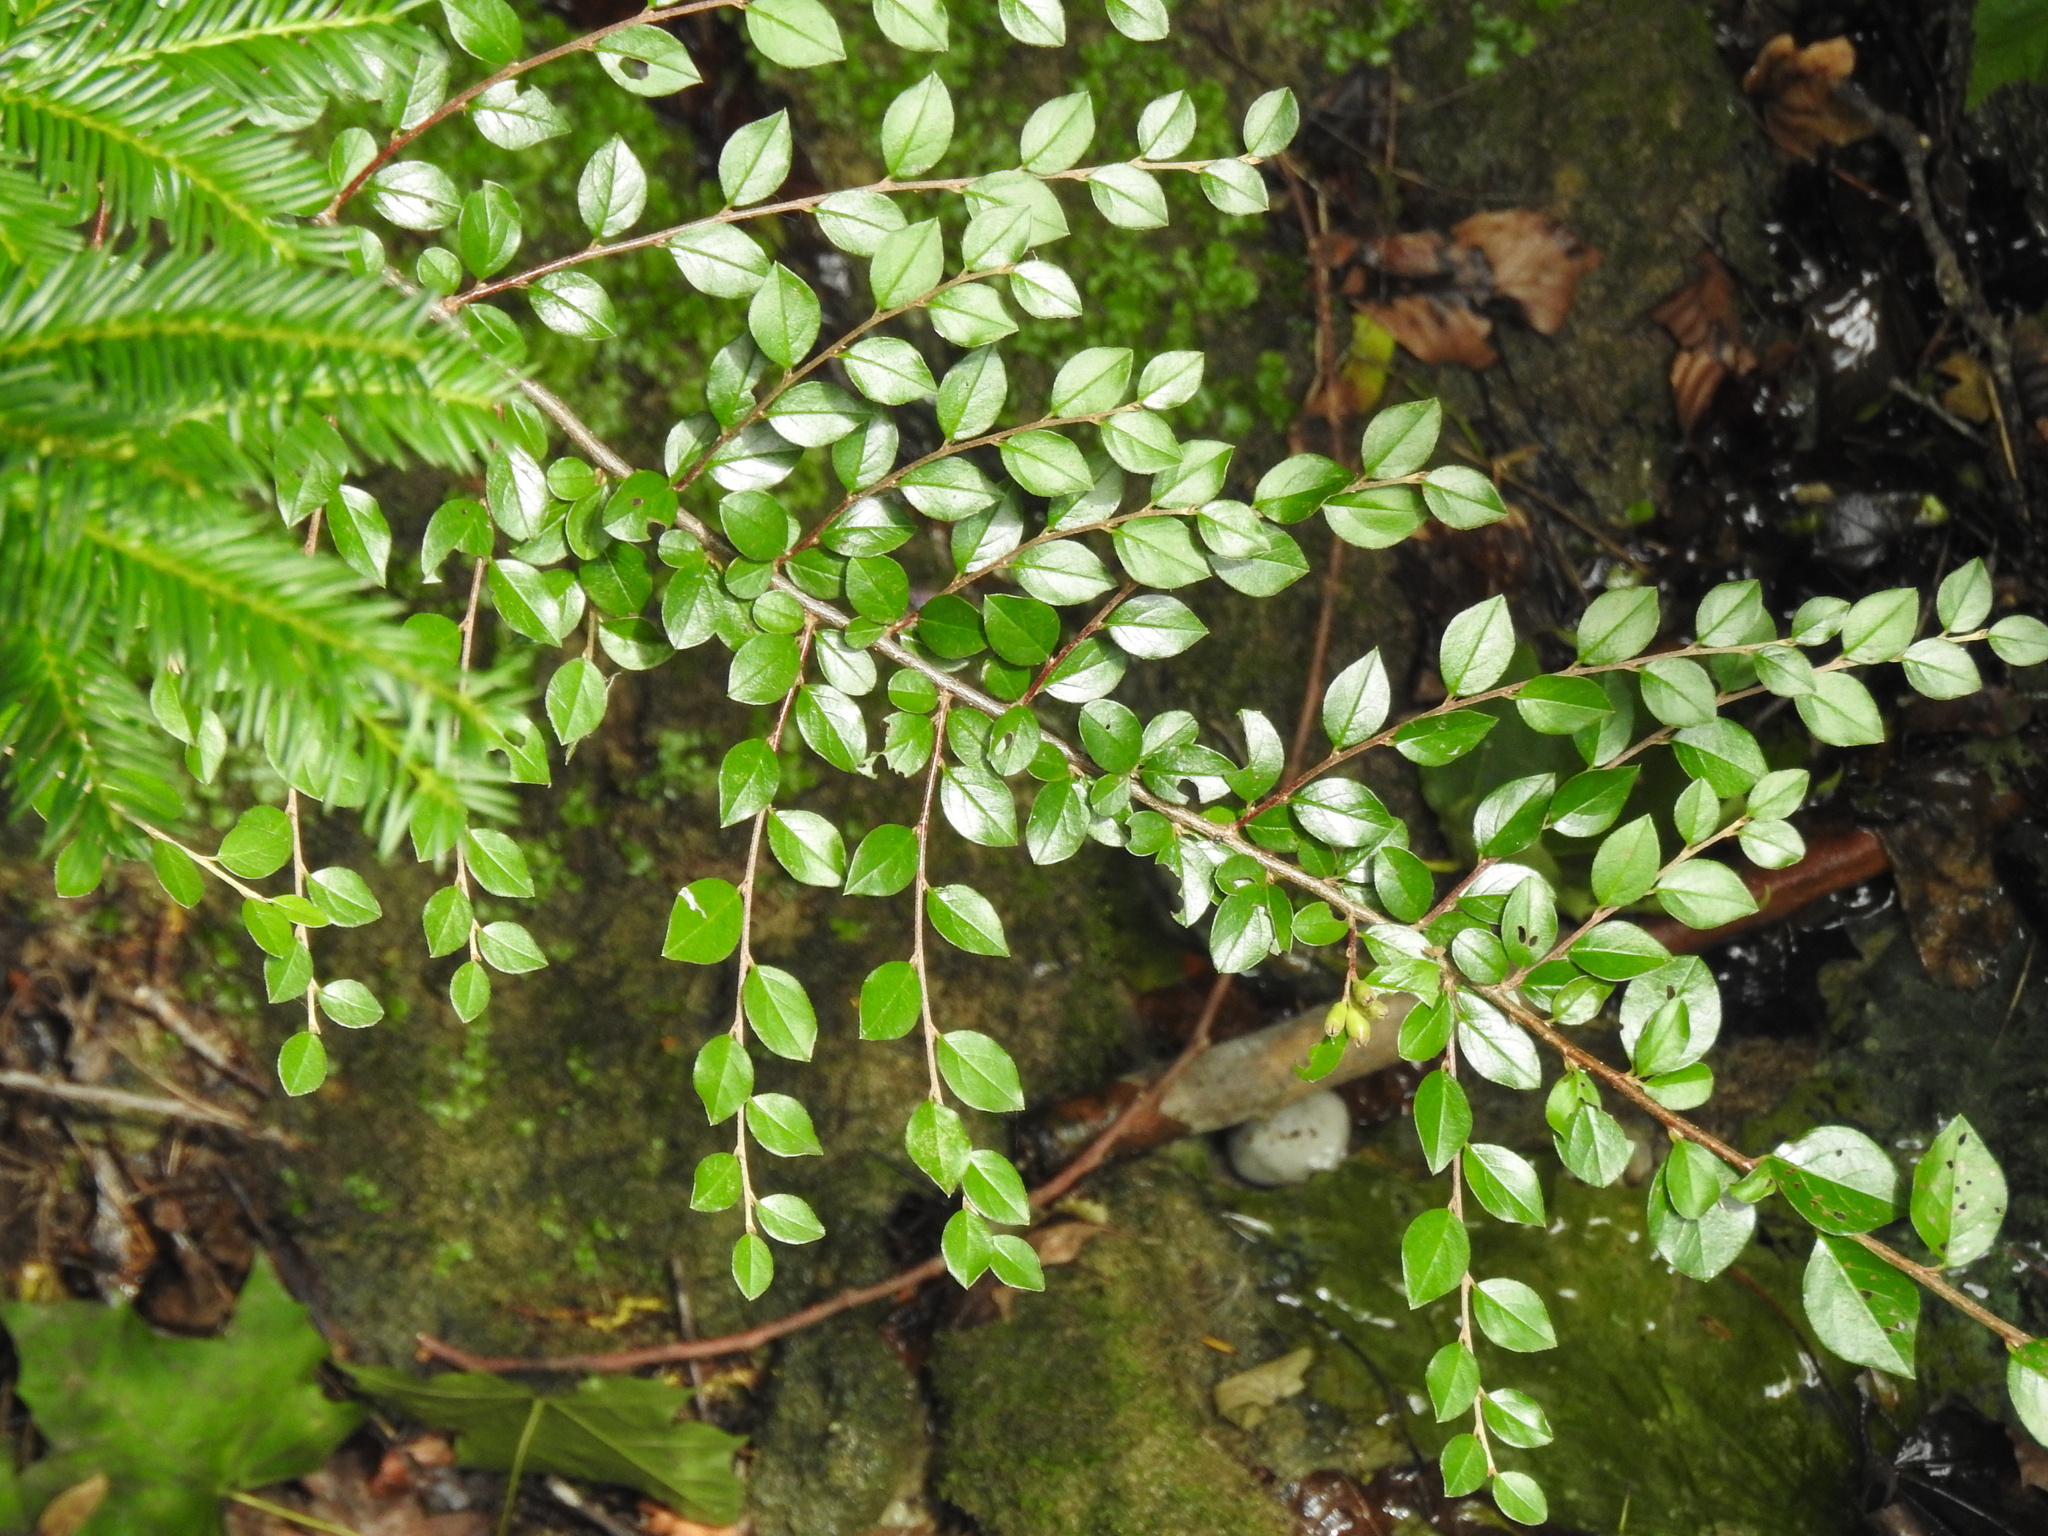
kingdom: Plantae
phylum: Tracheophyta
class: Magnoliopsida
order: Rosales
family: Rosaceae
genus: Cotoneaster
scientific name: Cotoneaster divaricatus
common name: Spreading cotoneaster
